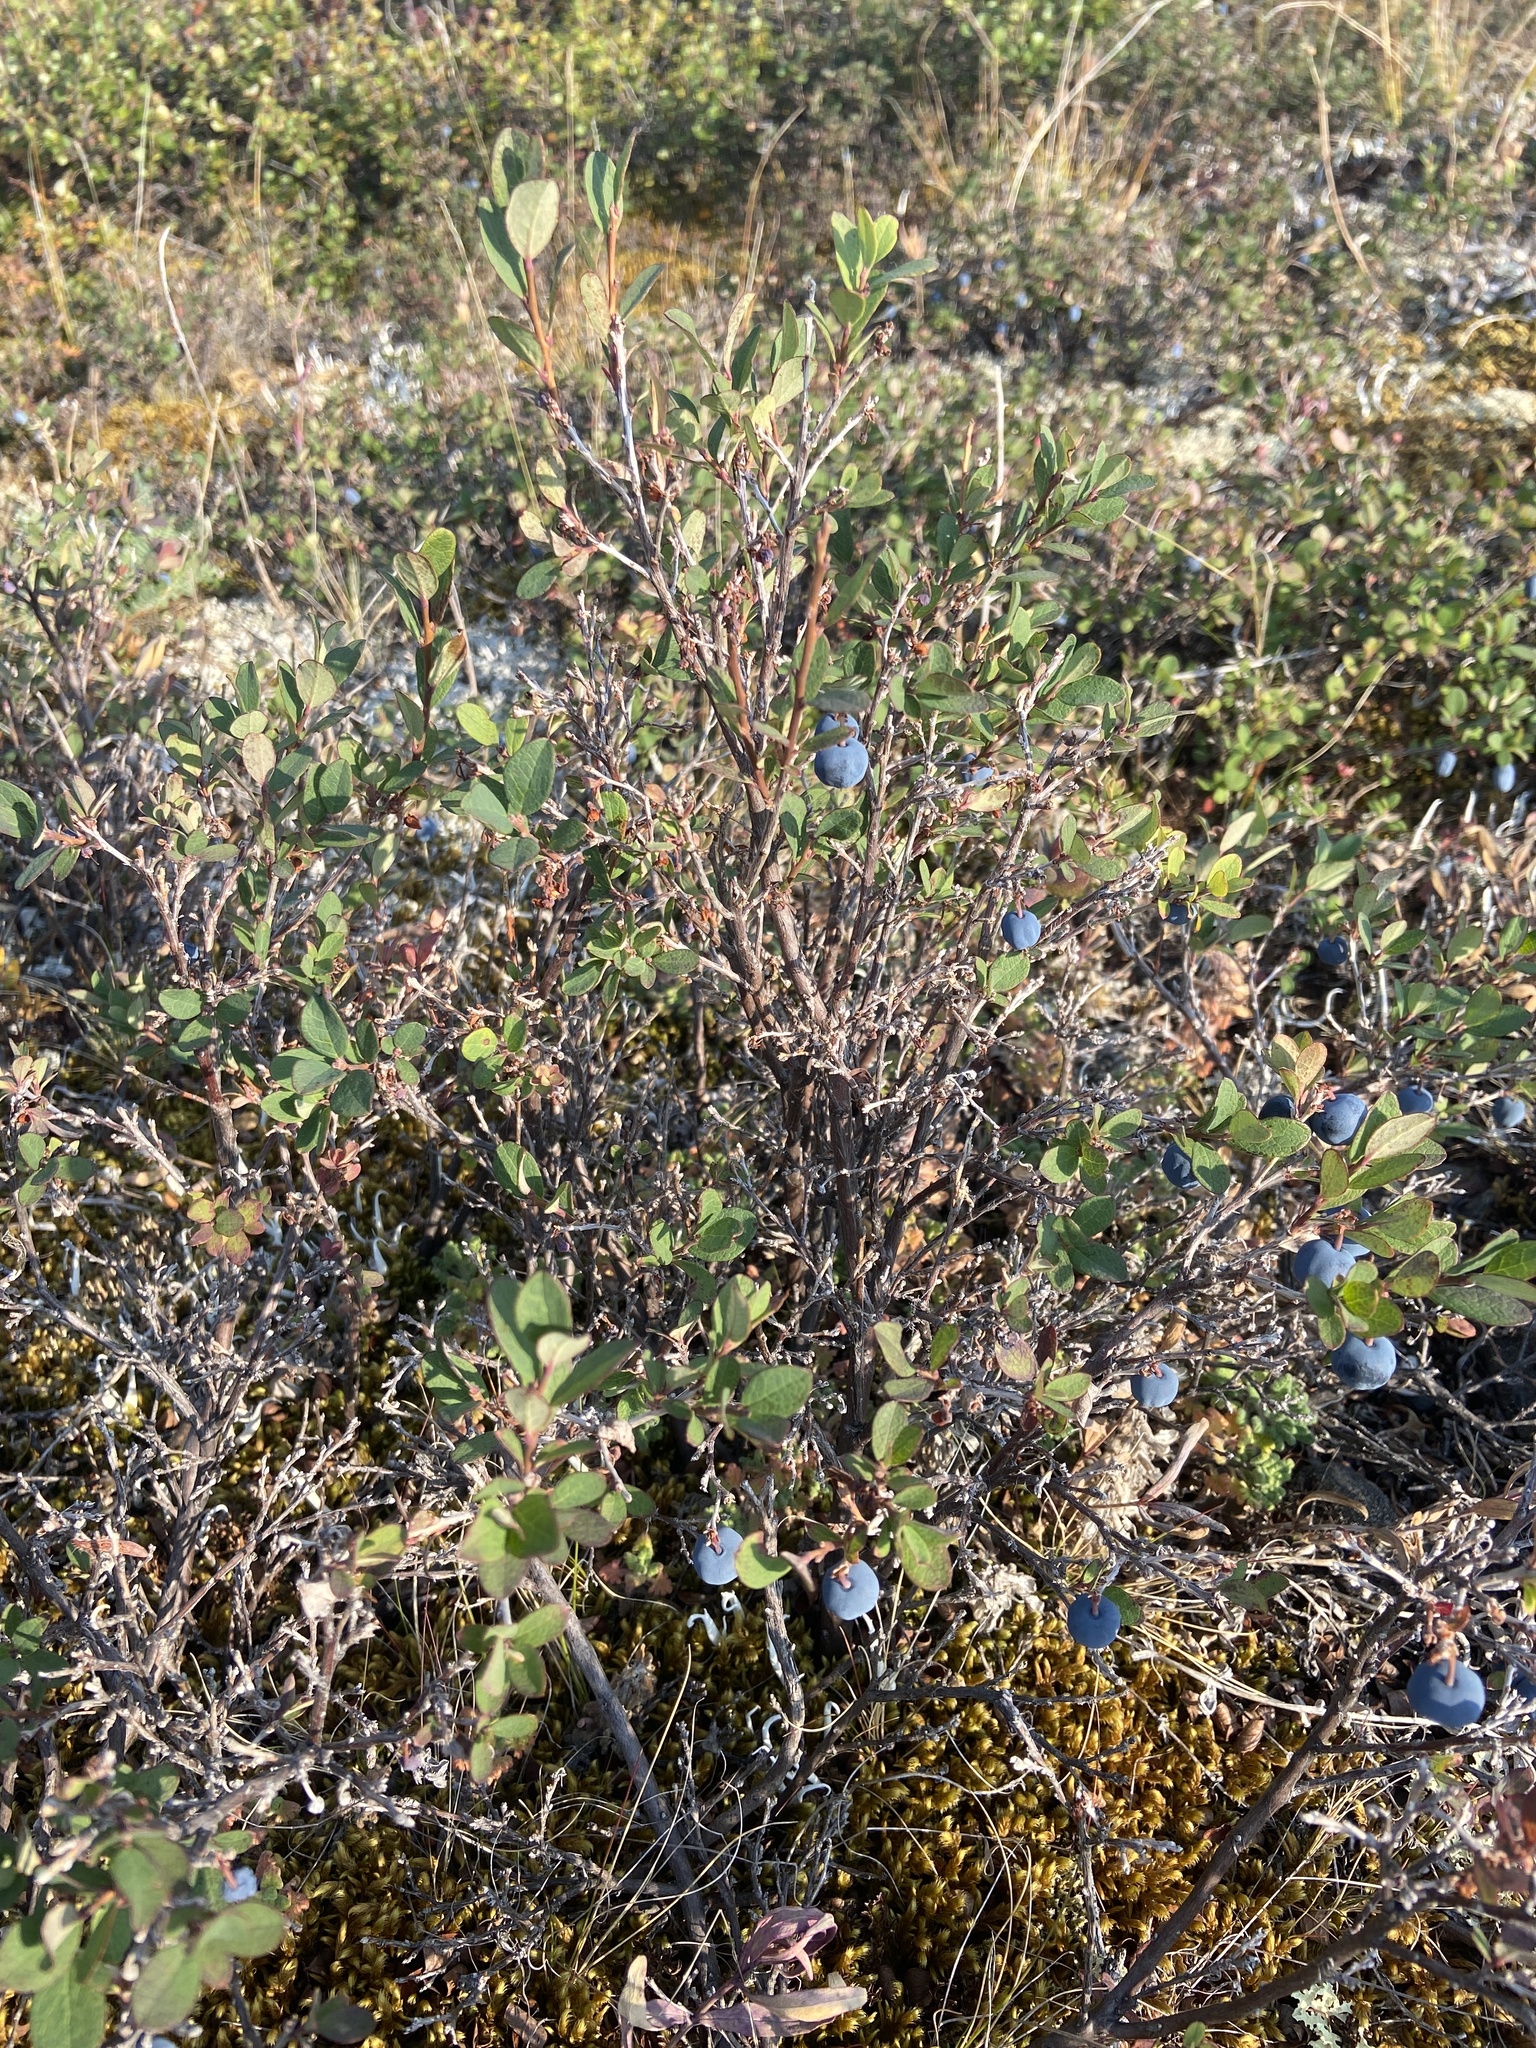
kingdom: Plantae
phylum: Tracheophyta
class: Magnoliopsida
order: Ericales
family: Ericaceae
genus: Vaccinium
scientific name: Vaccinium uliginosum
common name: Bog bilberry
